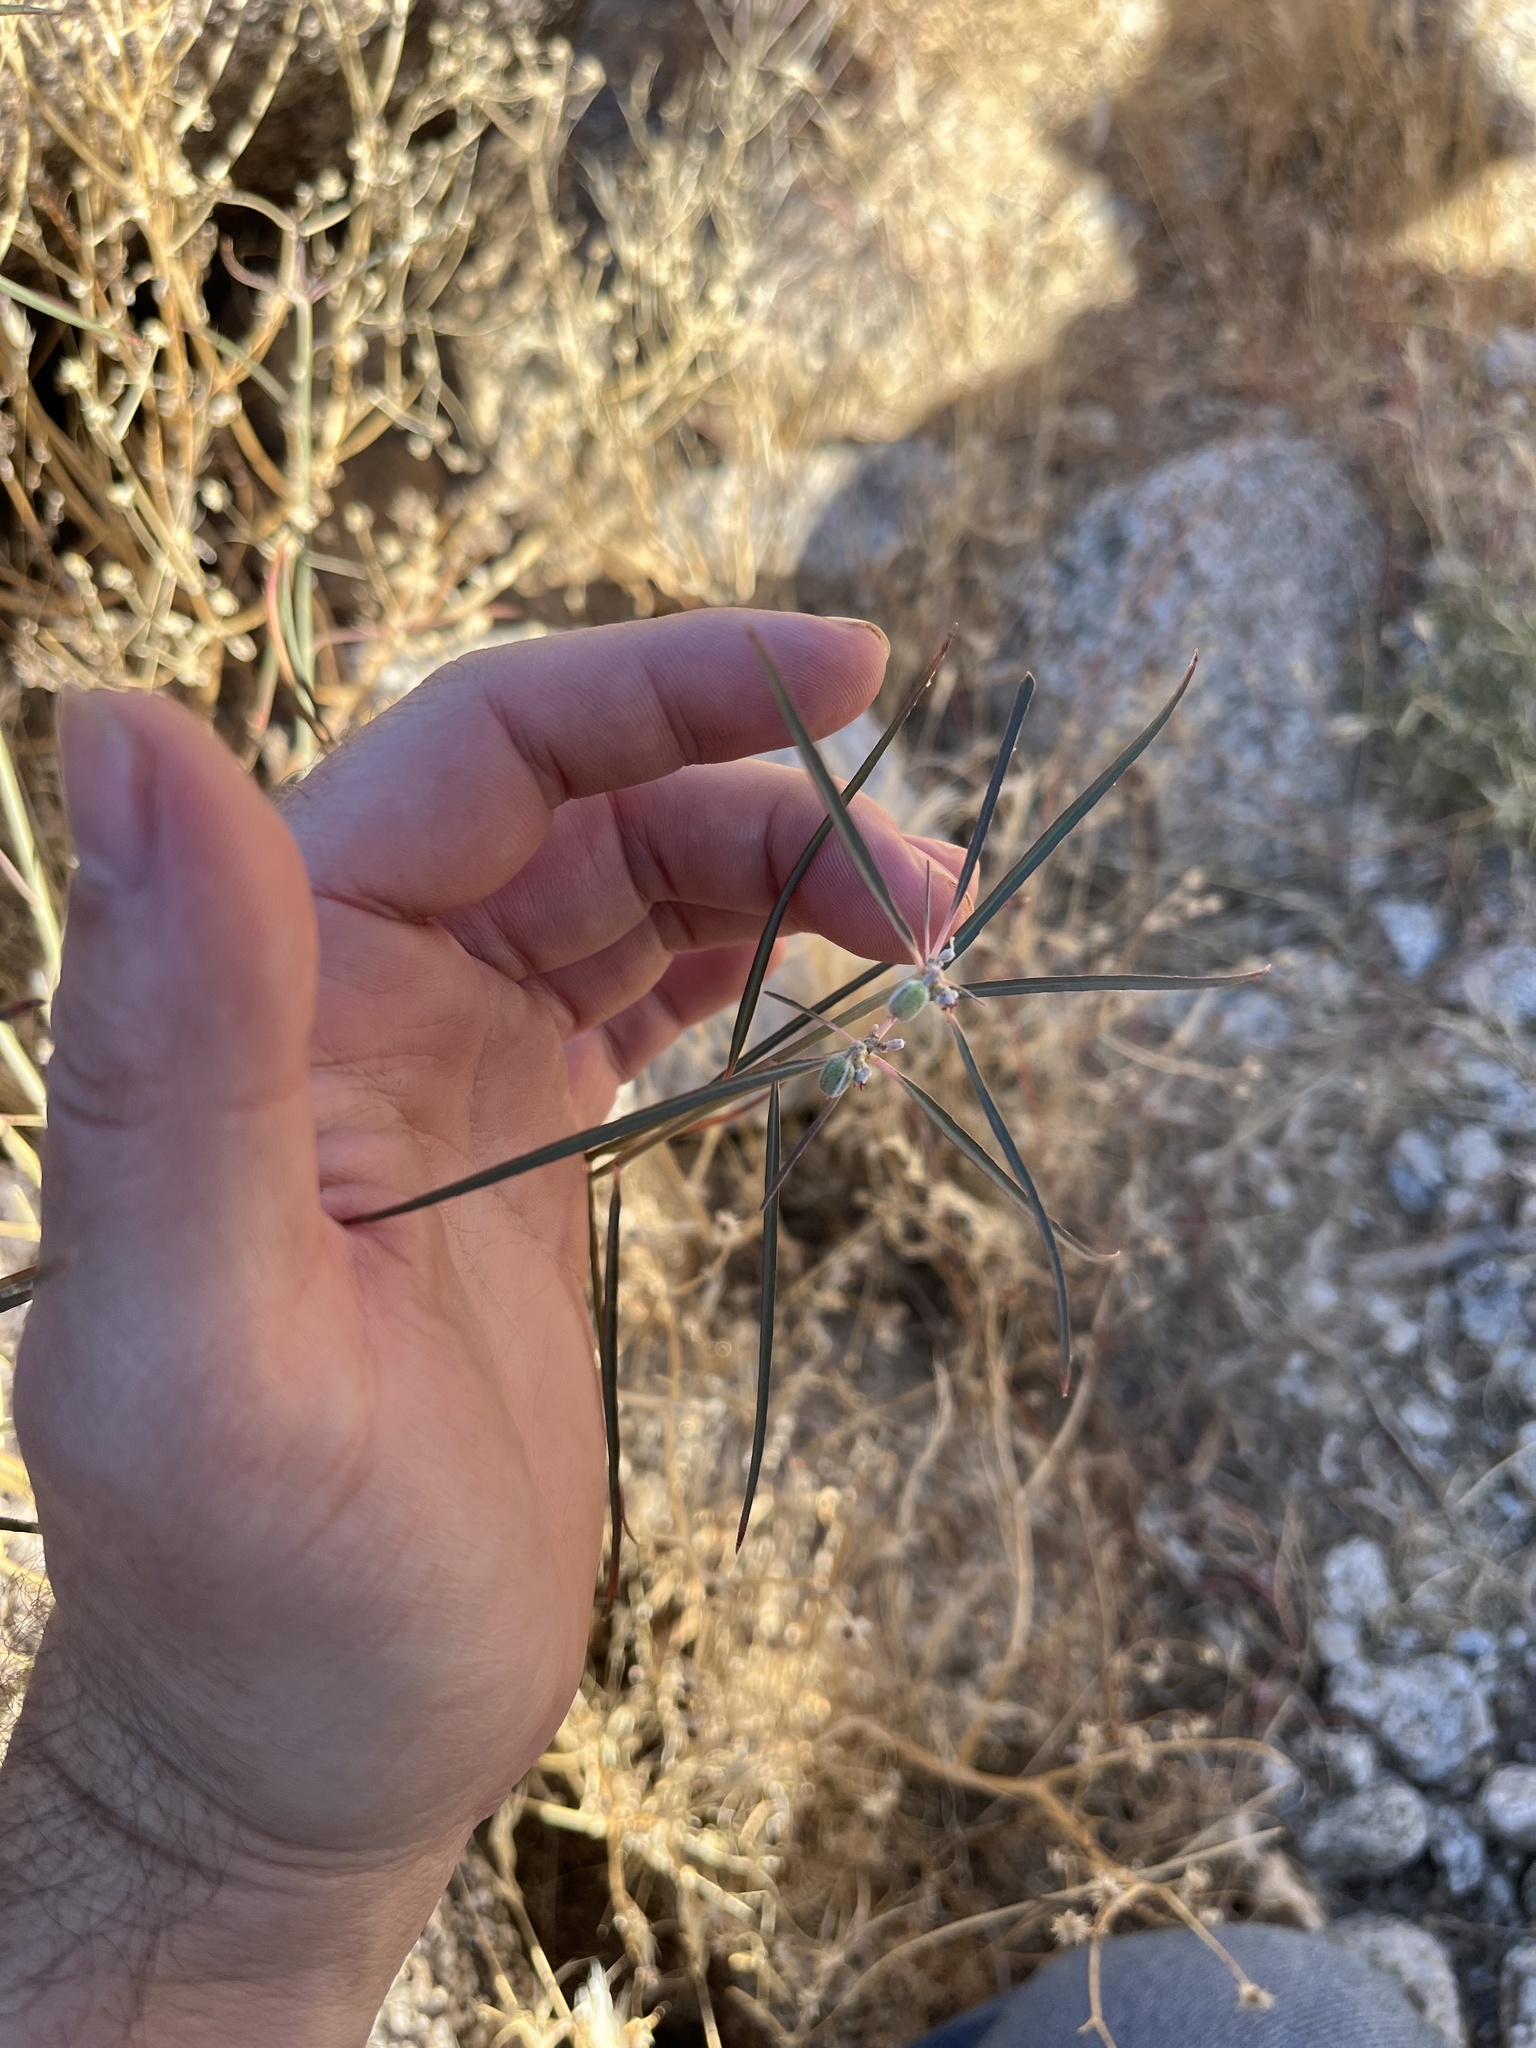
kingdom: Plantae
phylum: Tracheophyta
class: Magnoliopsida
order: Malpighiales
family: Euphorbiaceae
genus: Euphorbia
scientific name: Euphorbia eriantha
